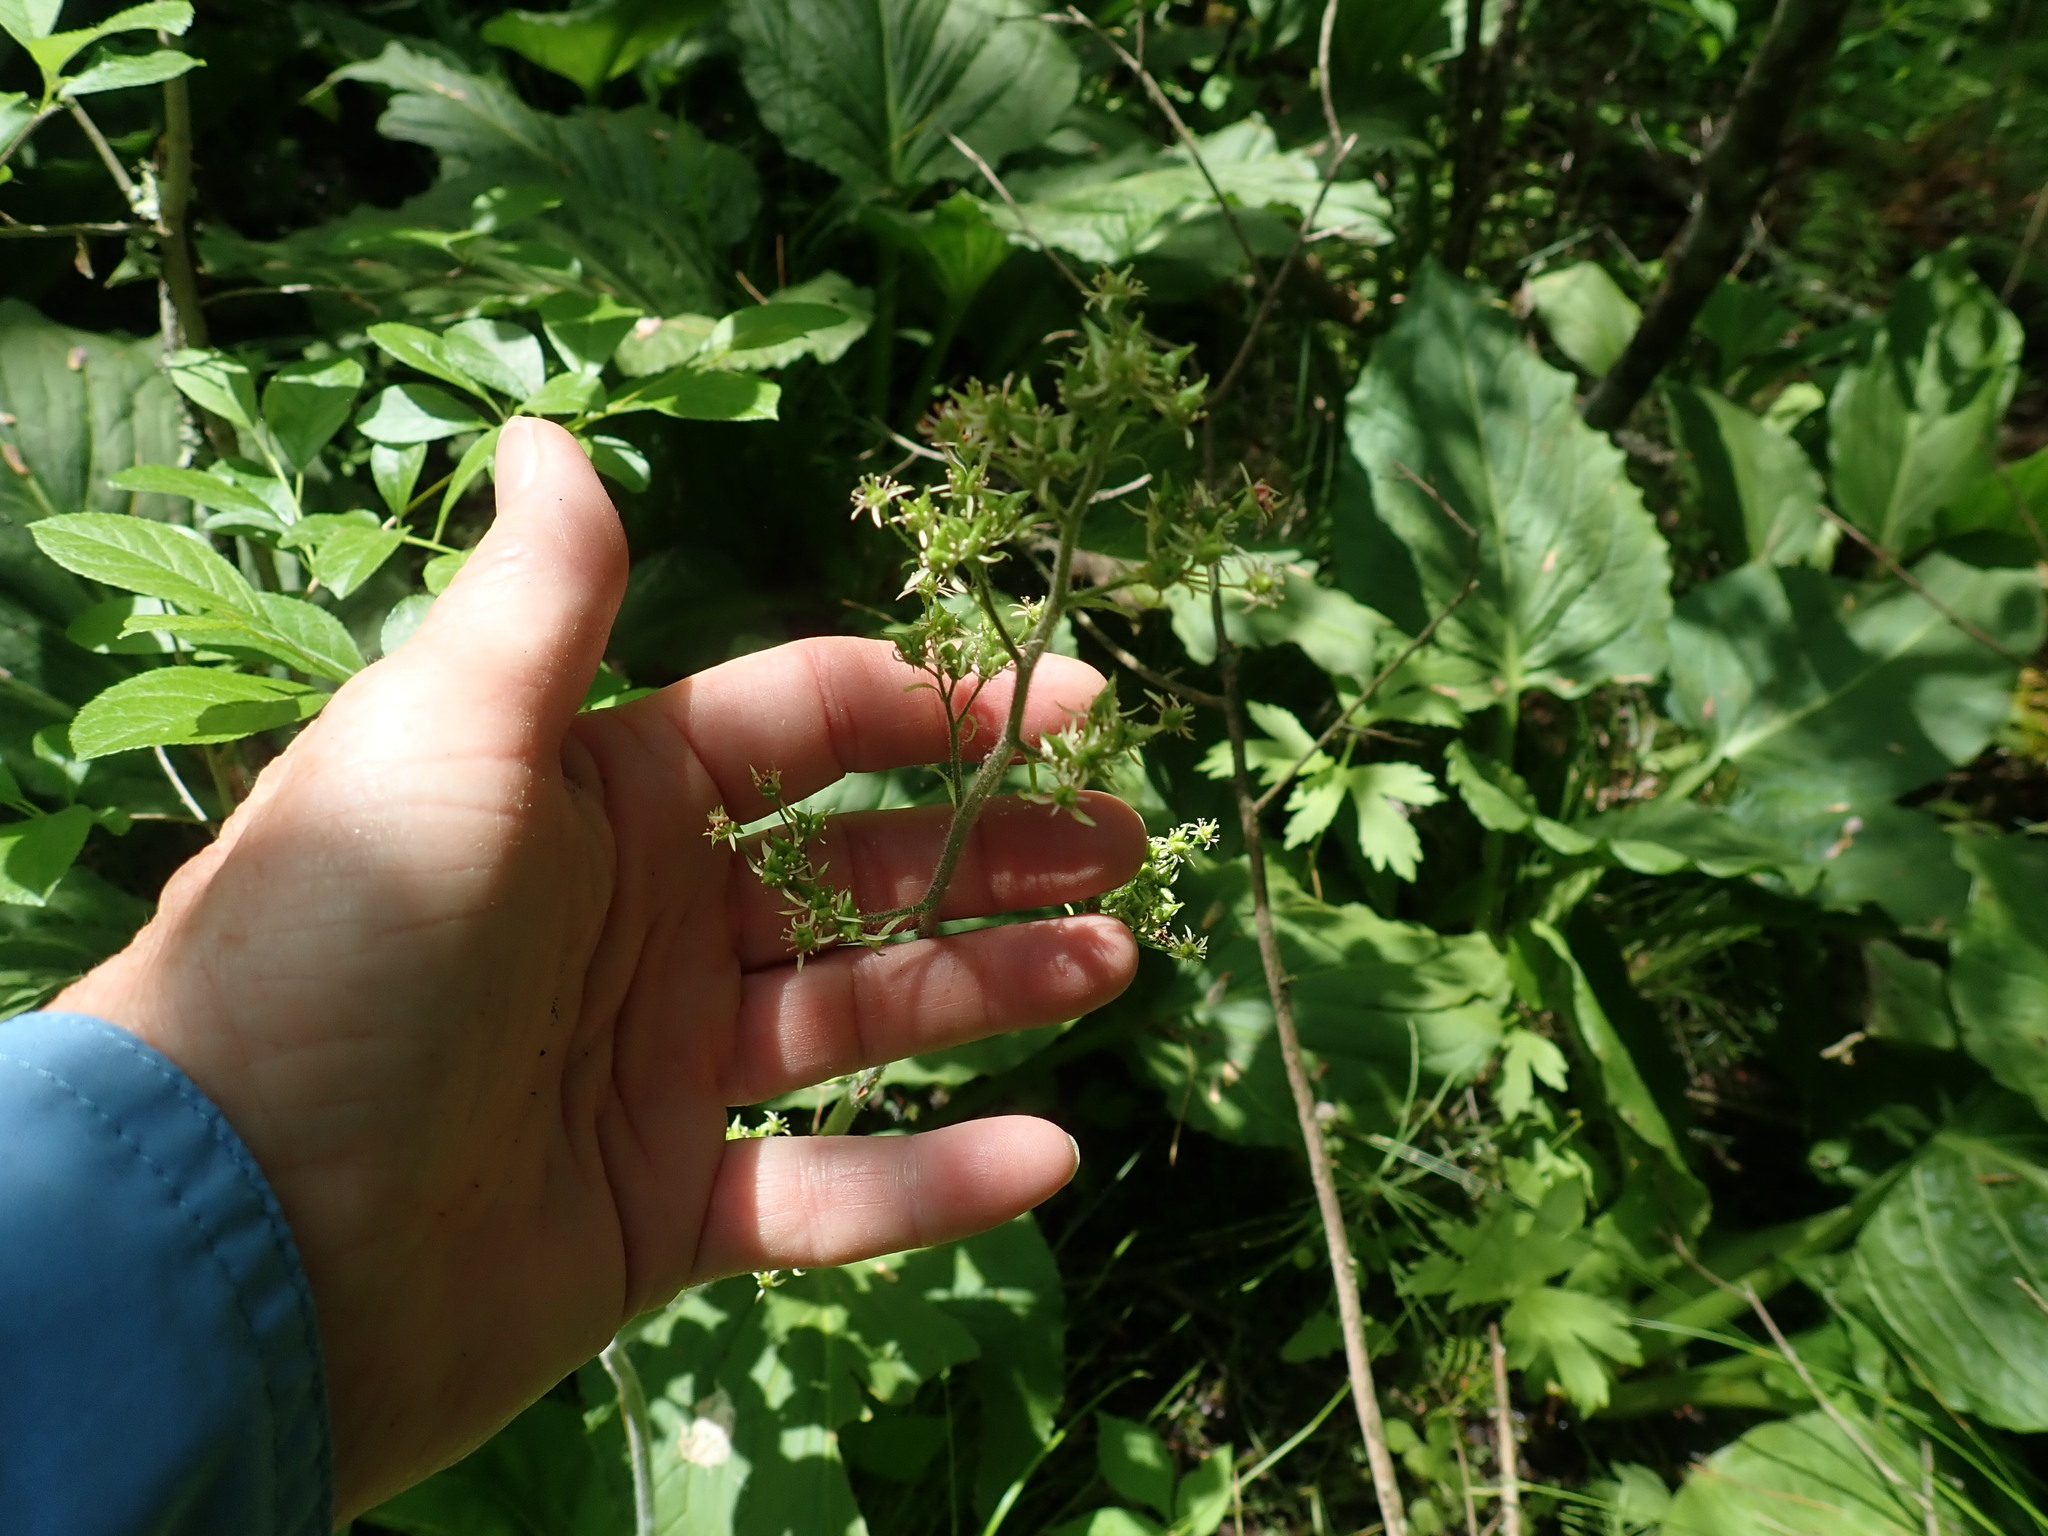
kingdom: Plantae
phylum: Tracheophyta
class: Magnoliopsida
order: Saxifragales
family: Saxifragaceae
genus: Micranthes
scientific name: Micranthes pensylvanica
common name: Marsh saxifrage
